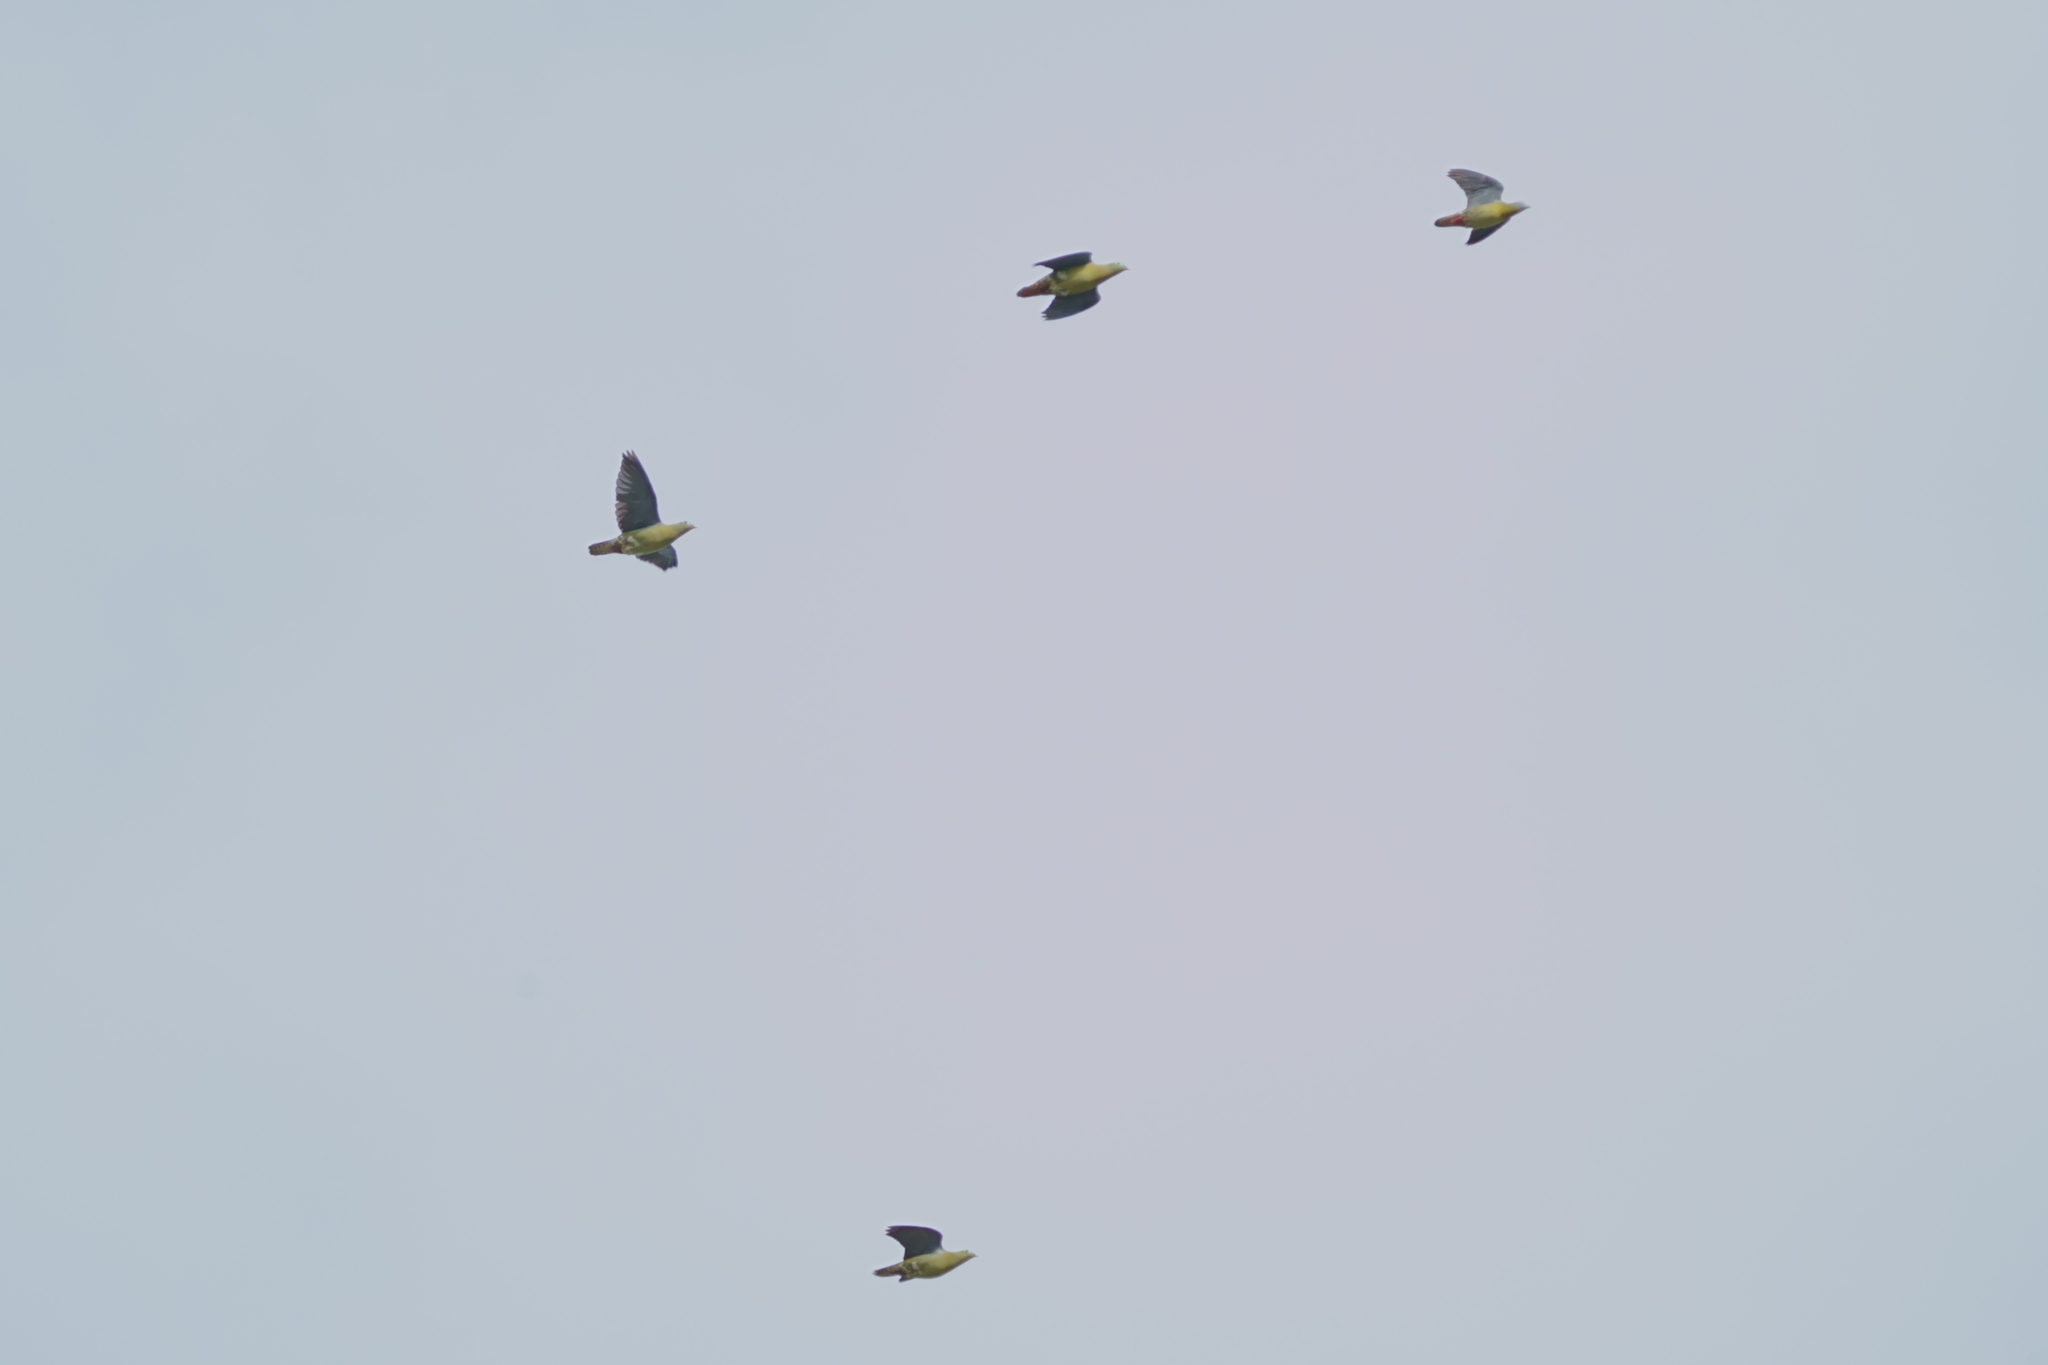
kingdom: Animalia
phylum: Chordata
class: Aves
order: Columbiformes
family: Columbidae
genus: Treron
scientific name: Treron curvirostra
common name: Thick-billed green pigeon
